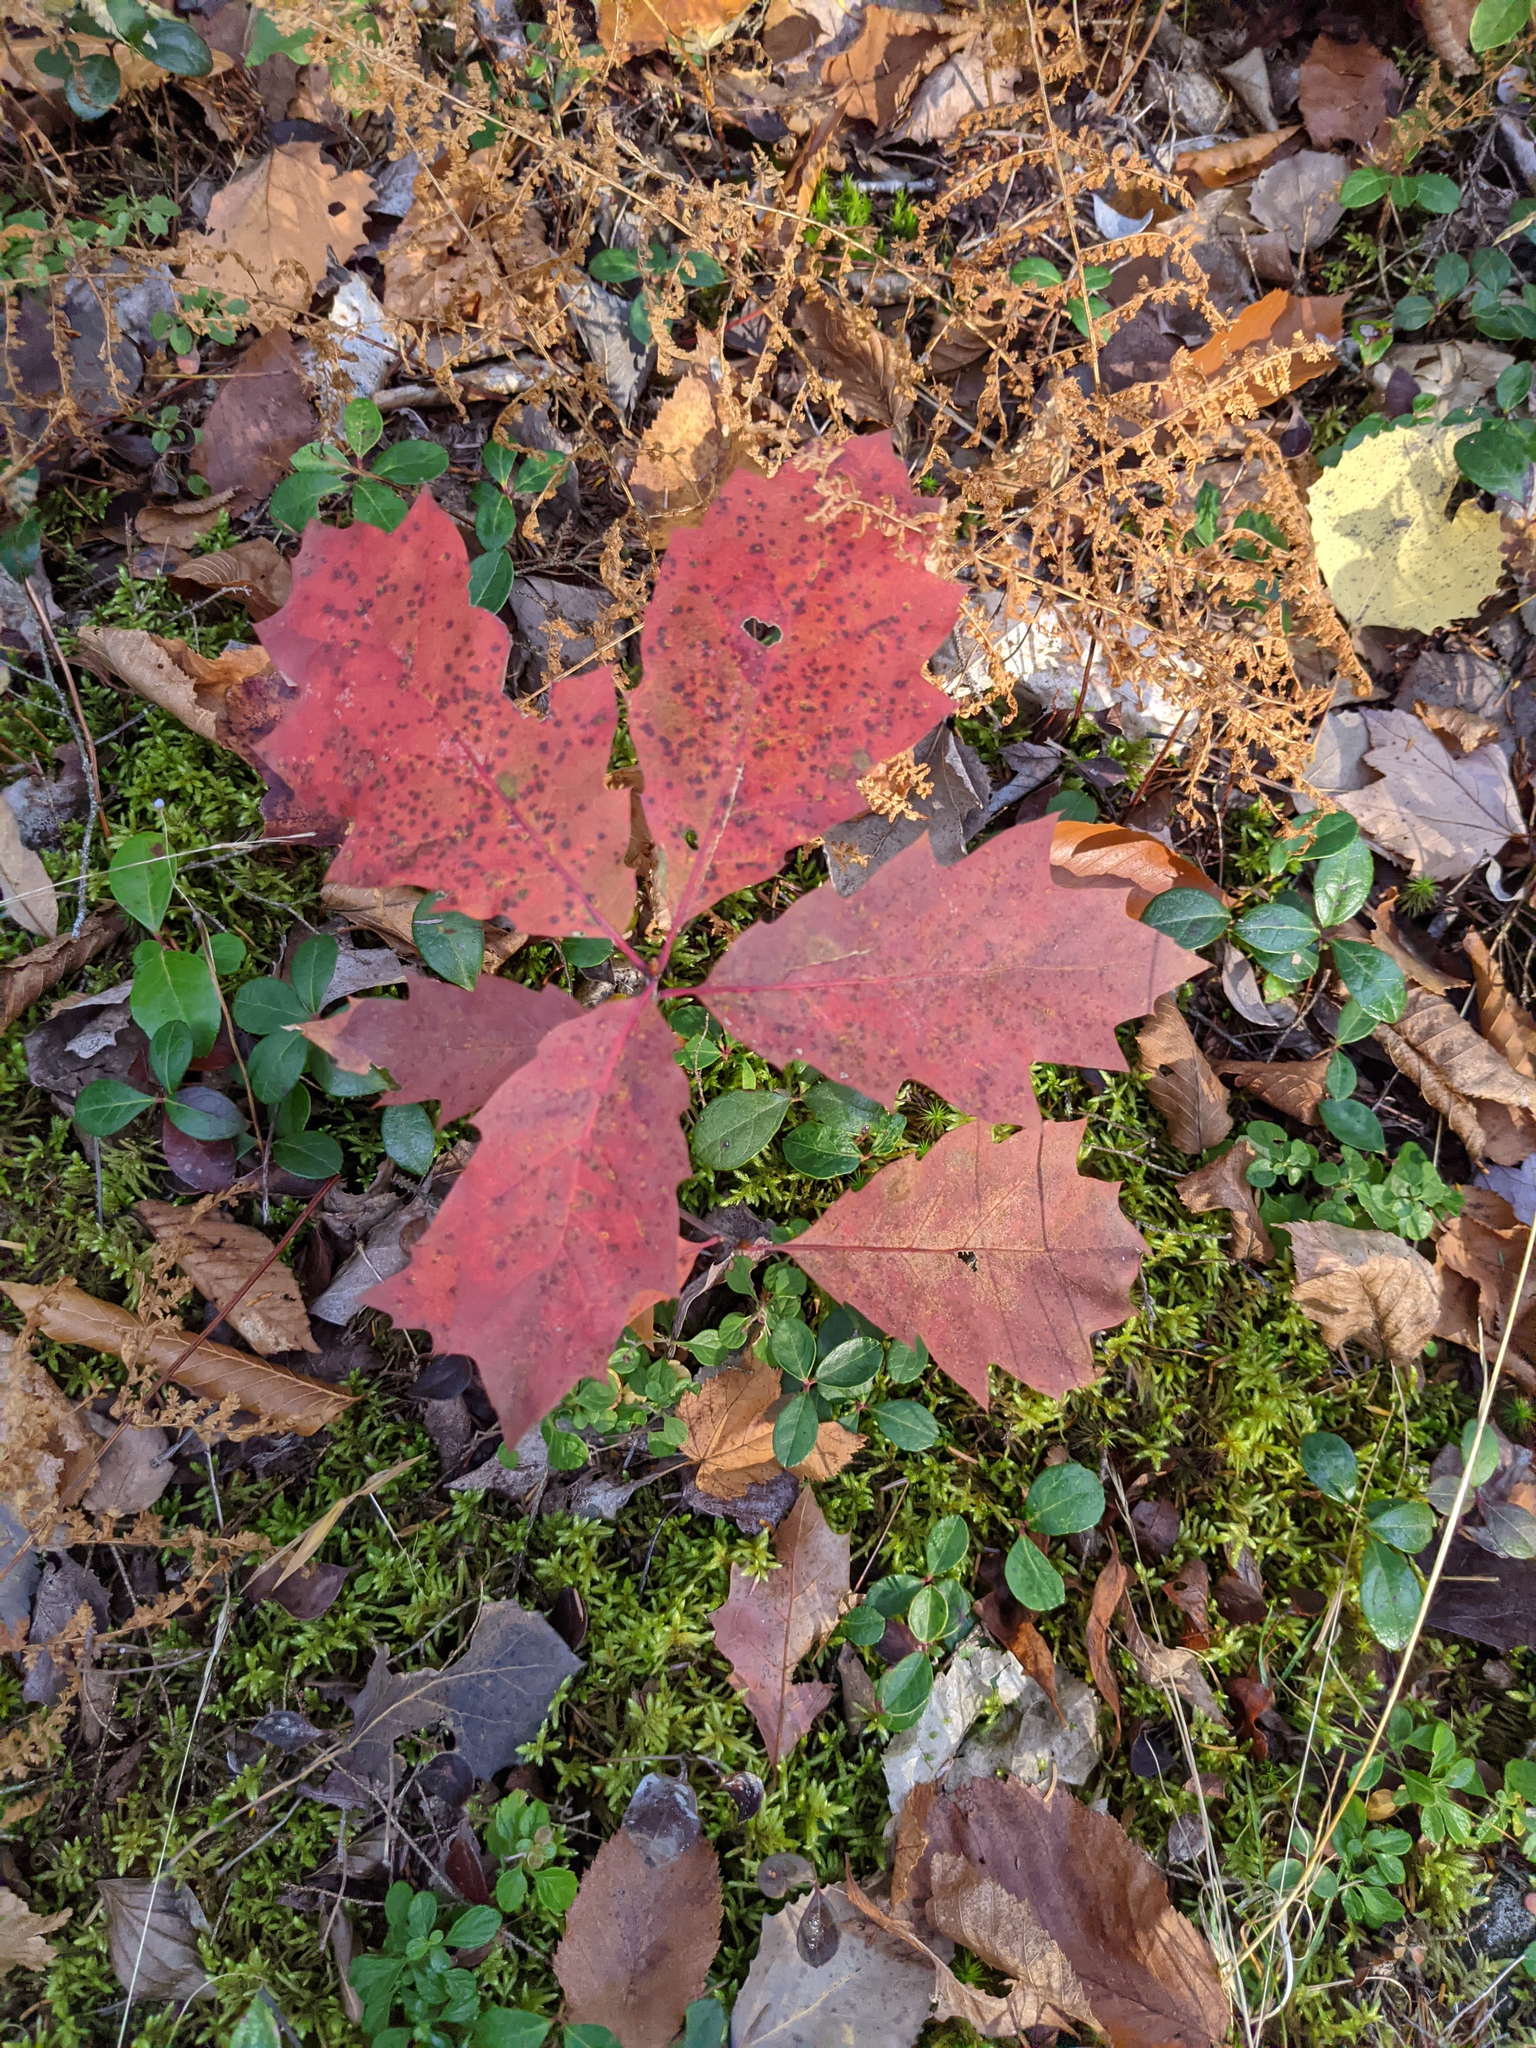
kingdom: Plantae
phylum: Tracheophyta
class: Magnoliopsida
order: Ericales
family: Ericaceae
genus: Gaultheria
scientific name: Gaultheria procumbens
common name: Checkerberry
